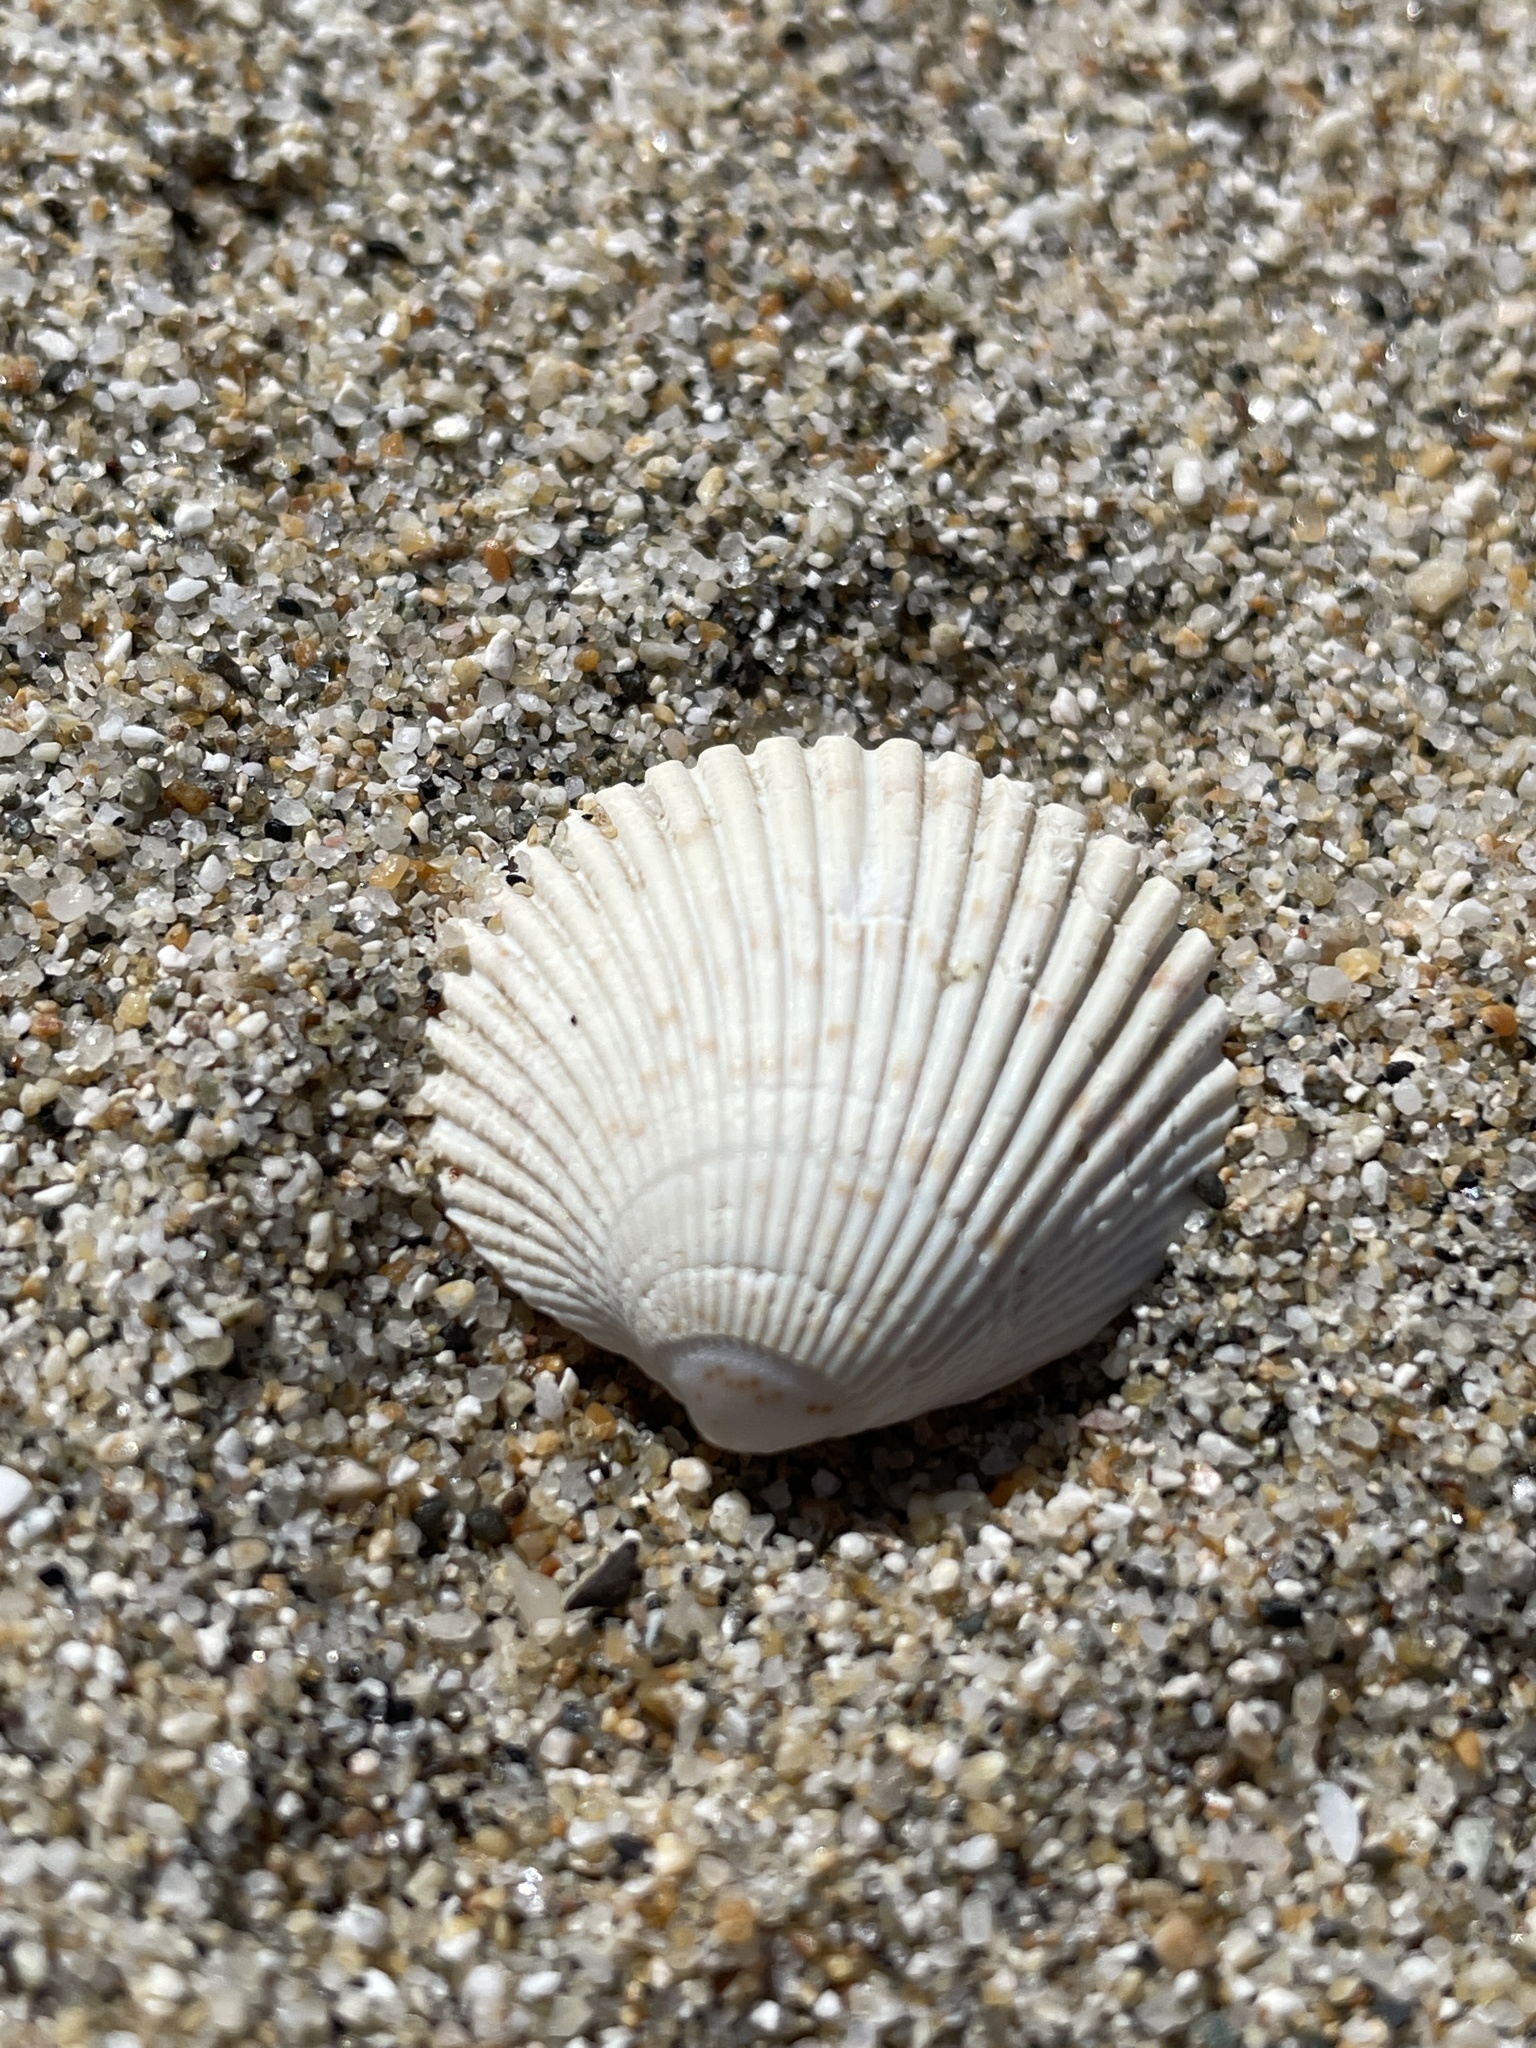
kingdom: Animalia
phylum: Mollusca
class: Bivalvia
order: Cardiida
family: Cardiidae
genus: Clinocardium
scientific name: Clinocardium nuttallii
